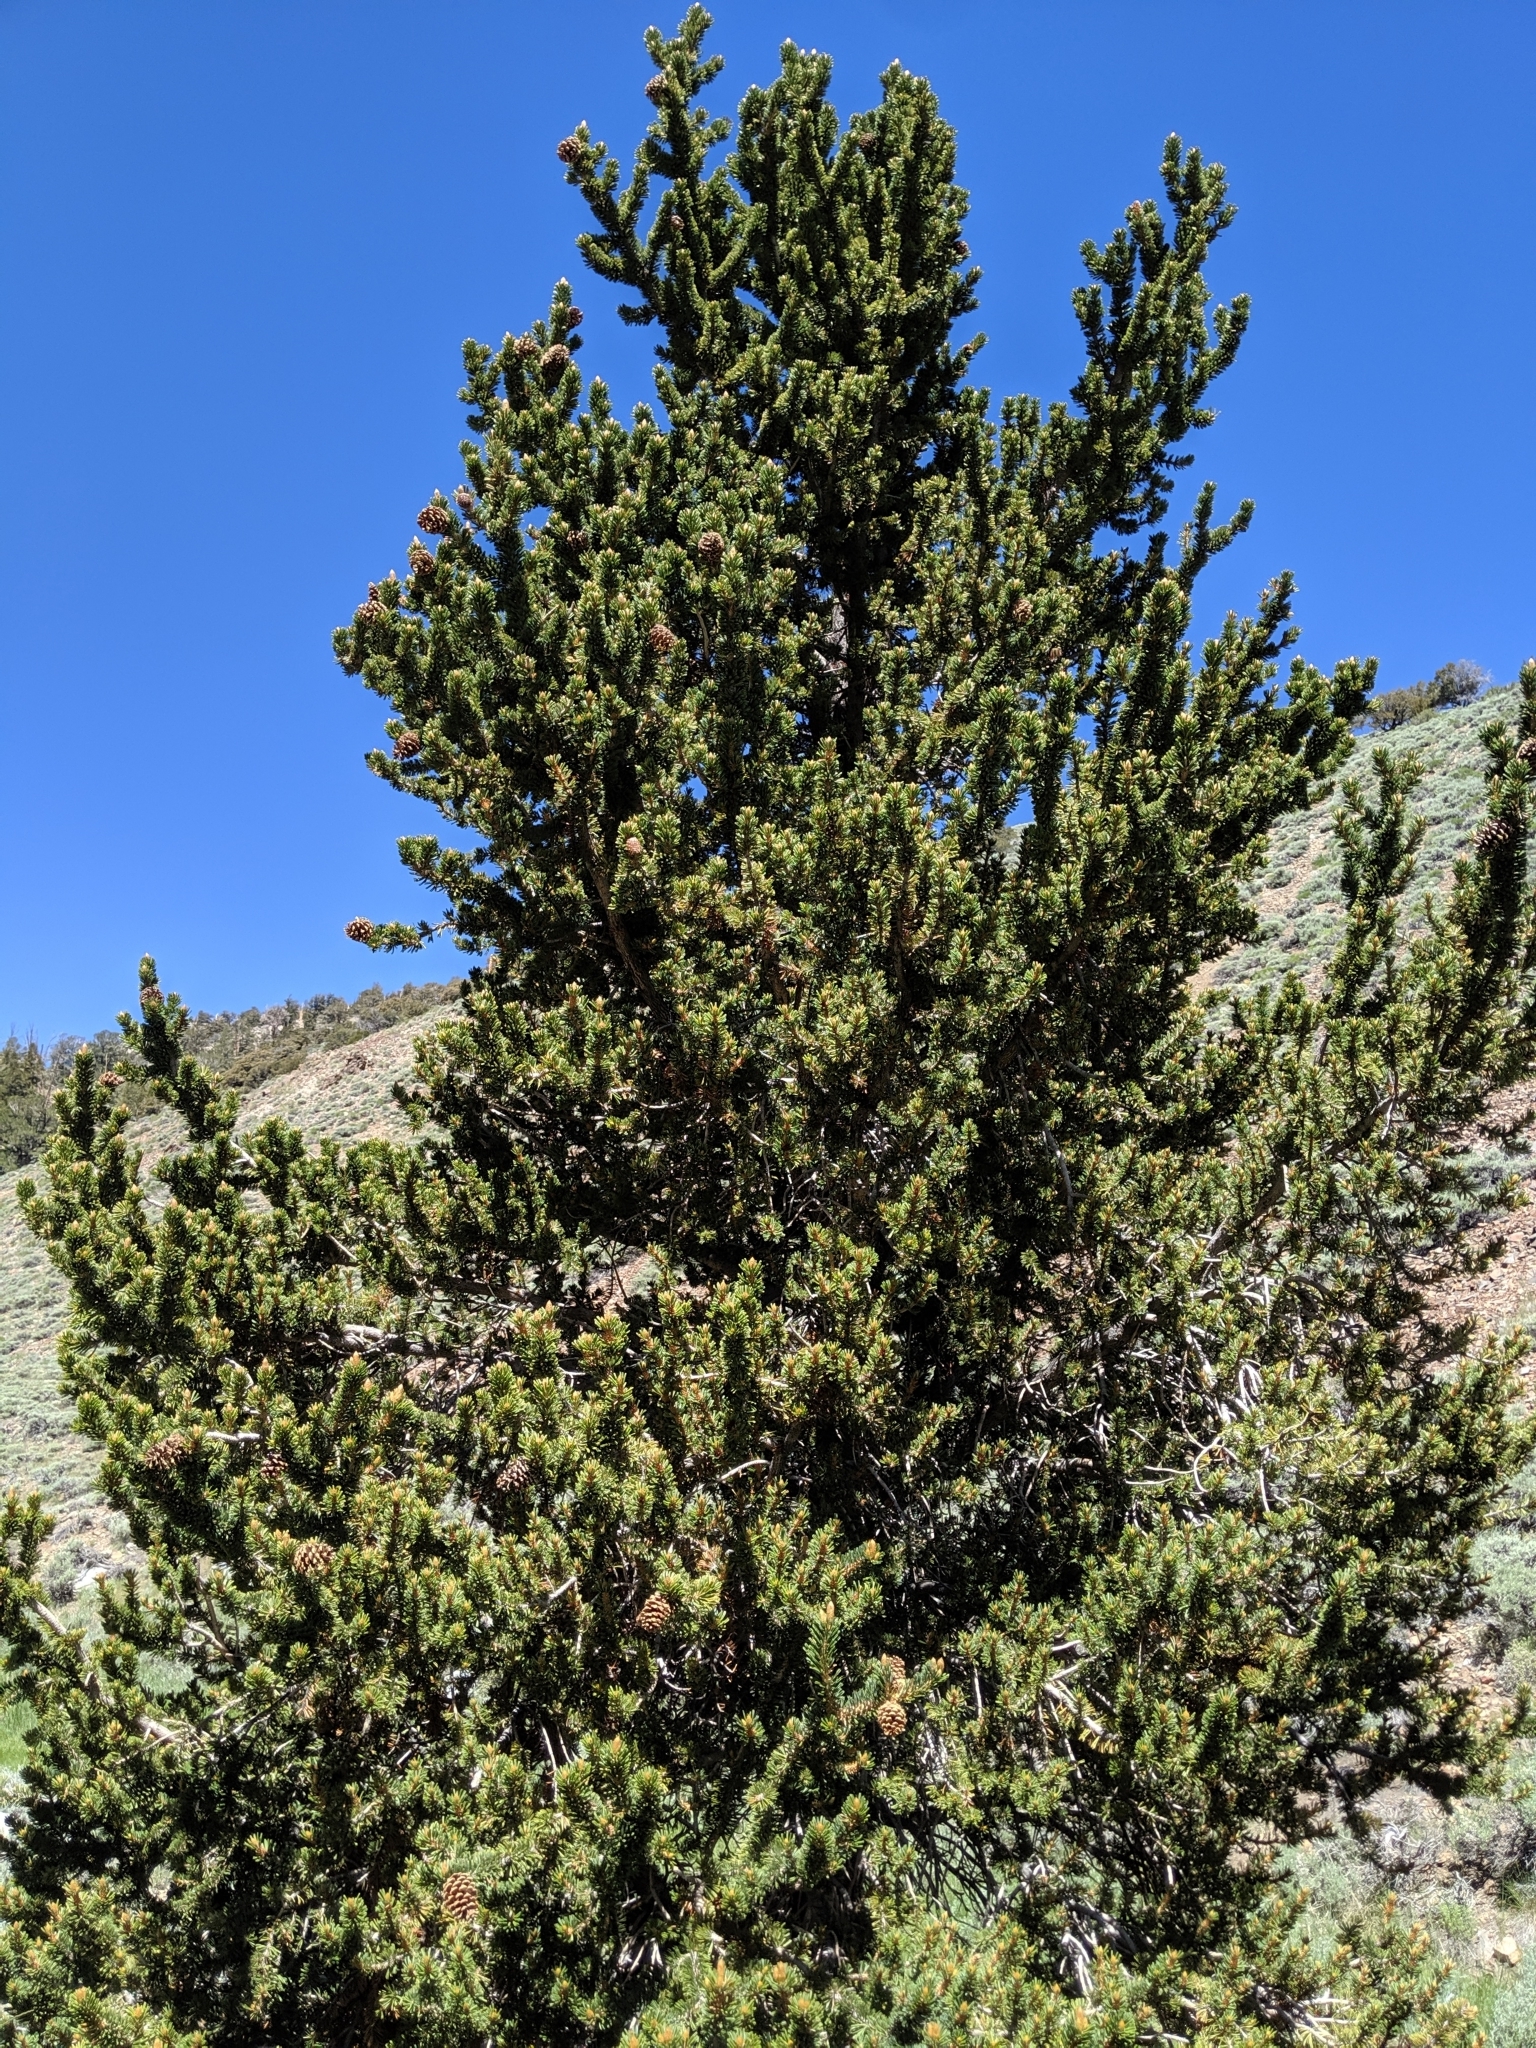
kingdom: Plantae
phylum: Tracheophyta
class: Pinopsida
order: Pinales
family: Pinaceae
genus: Pinus
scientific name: Pinus longaeva
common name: Intermountain bristlecone pine
